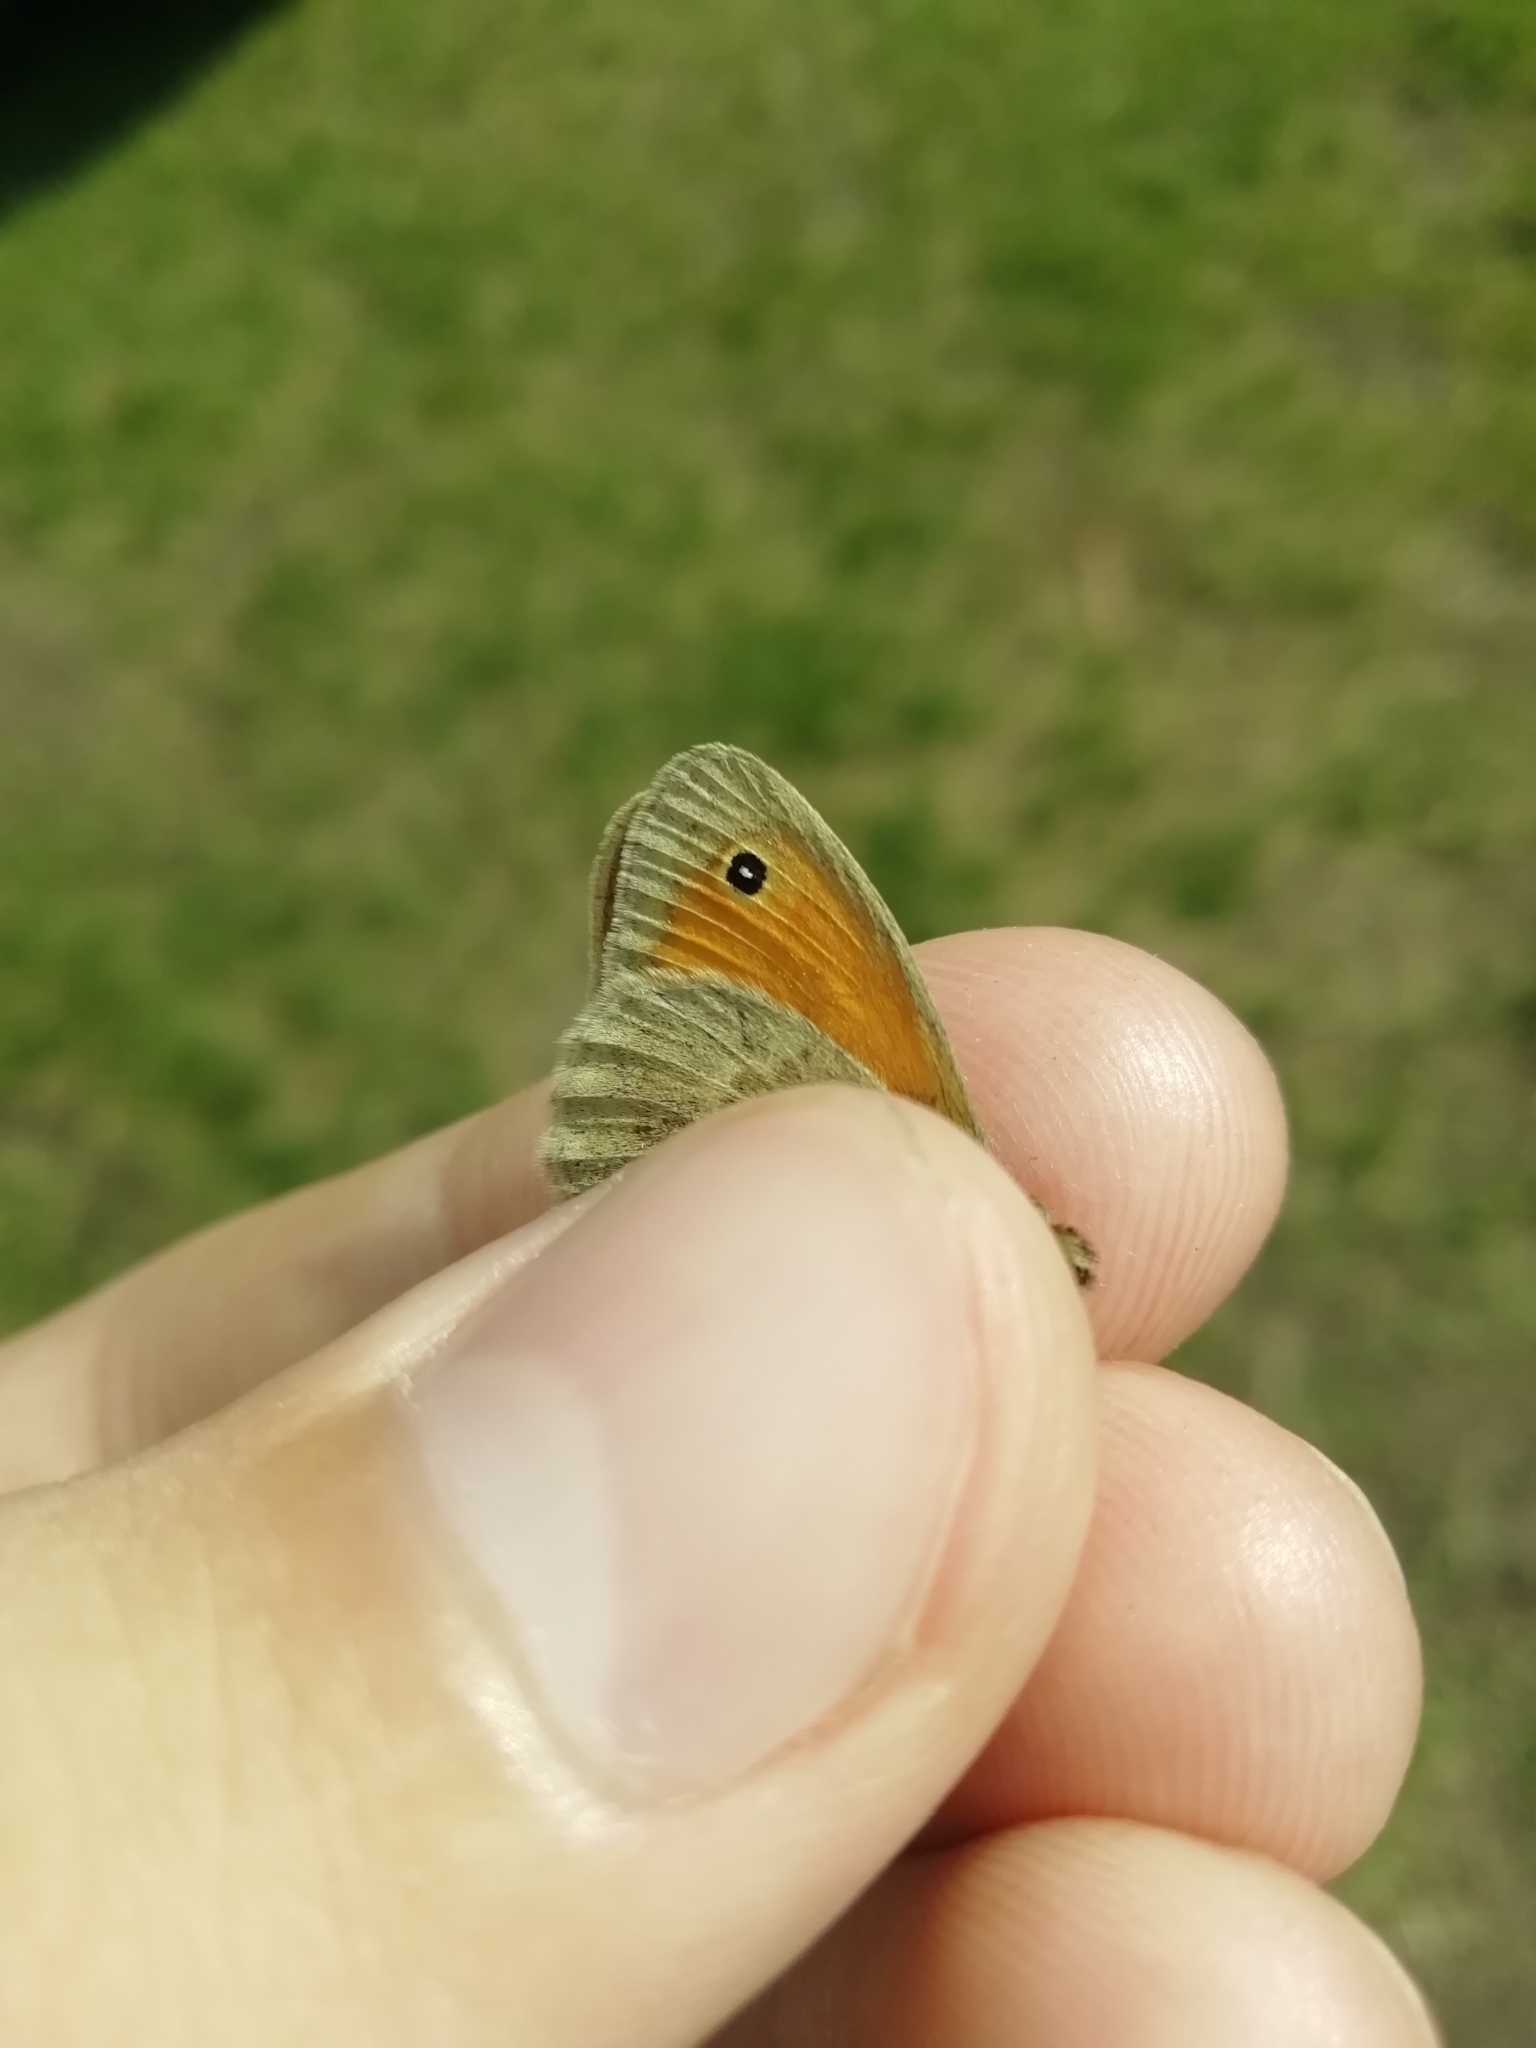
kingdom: Animalia
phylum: Arthropoda
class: Insecta
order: Lepidoptera
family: Nymphalidae
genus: Coenonympha
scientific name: Coenonympha pamphilus
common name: Small heath
